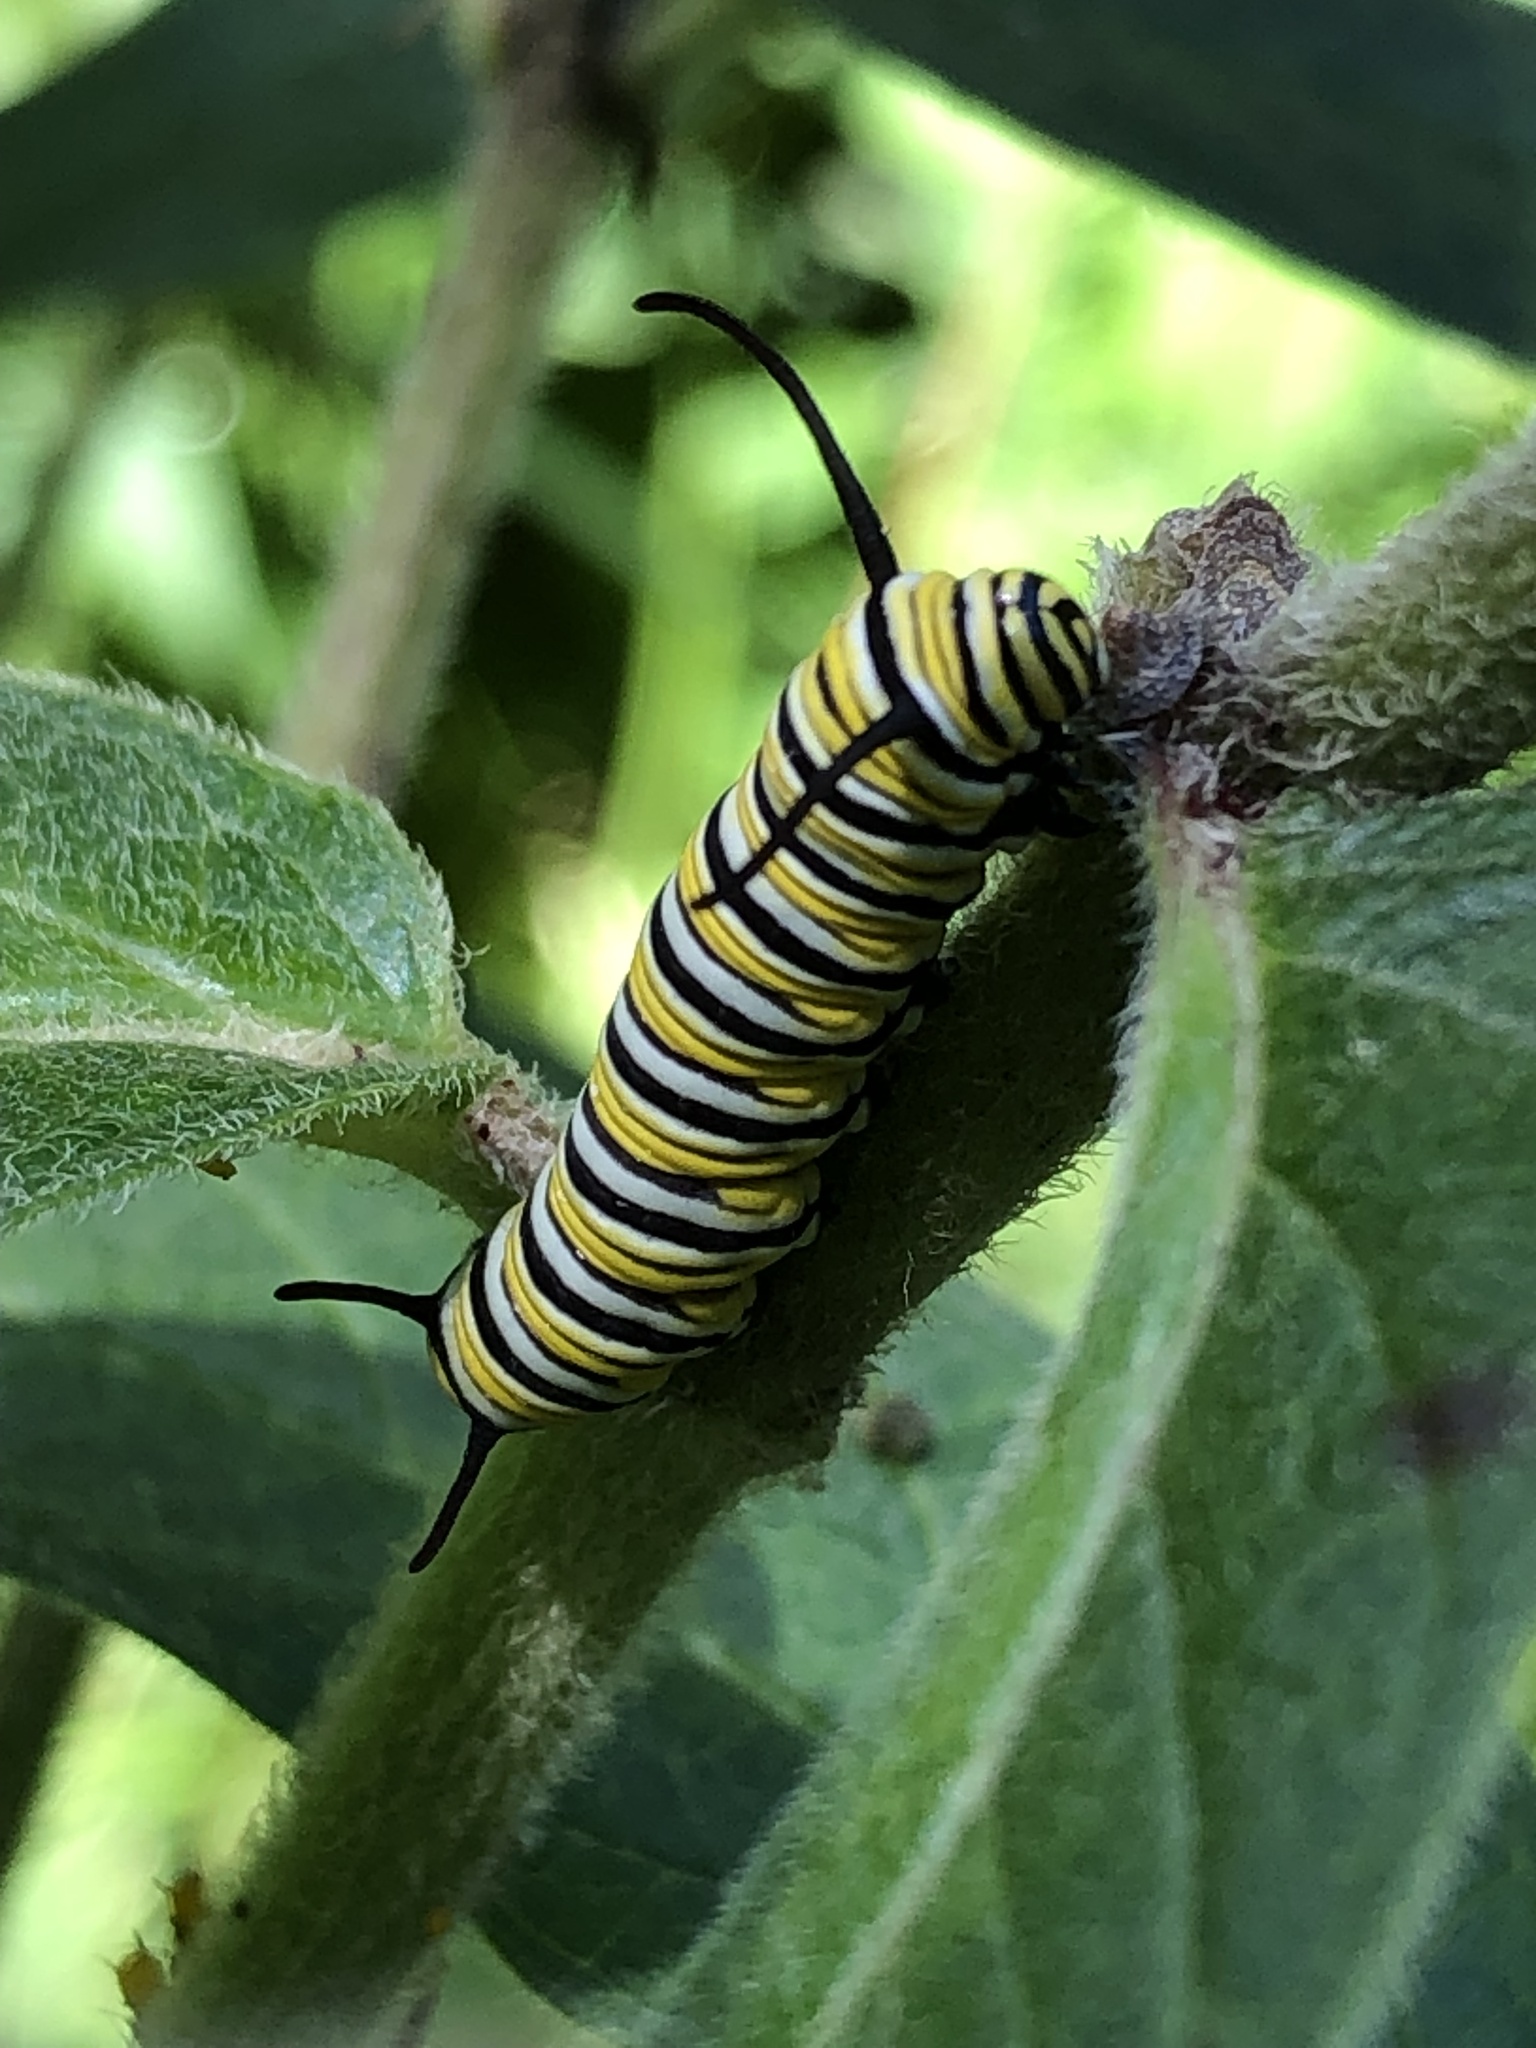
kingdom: Animalia
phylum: Arthropoda
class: Insecta
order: Lepidoptera
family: Nymphalidae
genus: Danaus
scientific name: Danaus plexippus
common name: Monarch
